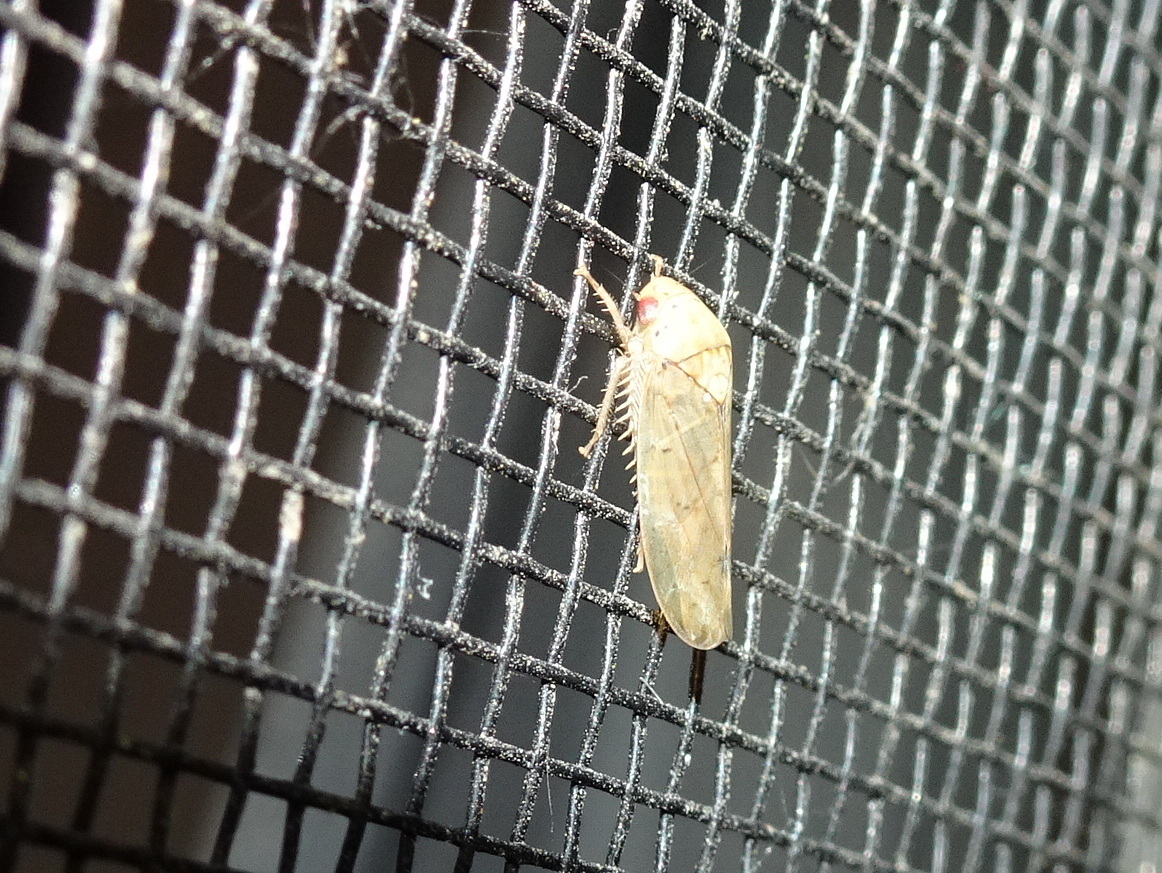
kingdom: Animalia
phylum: Arthropoda
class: Insecta
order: Hemiptera
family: Cicadellidae
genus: Ponana
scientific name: Ponana quadralaba
